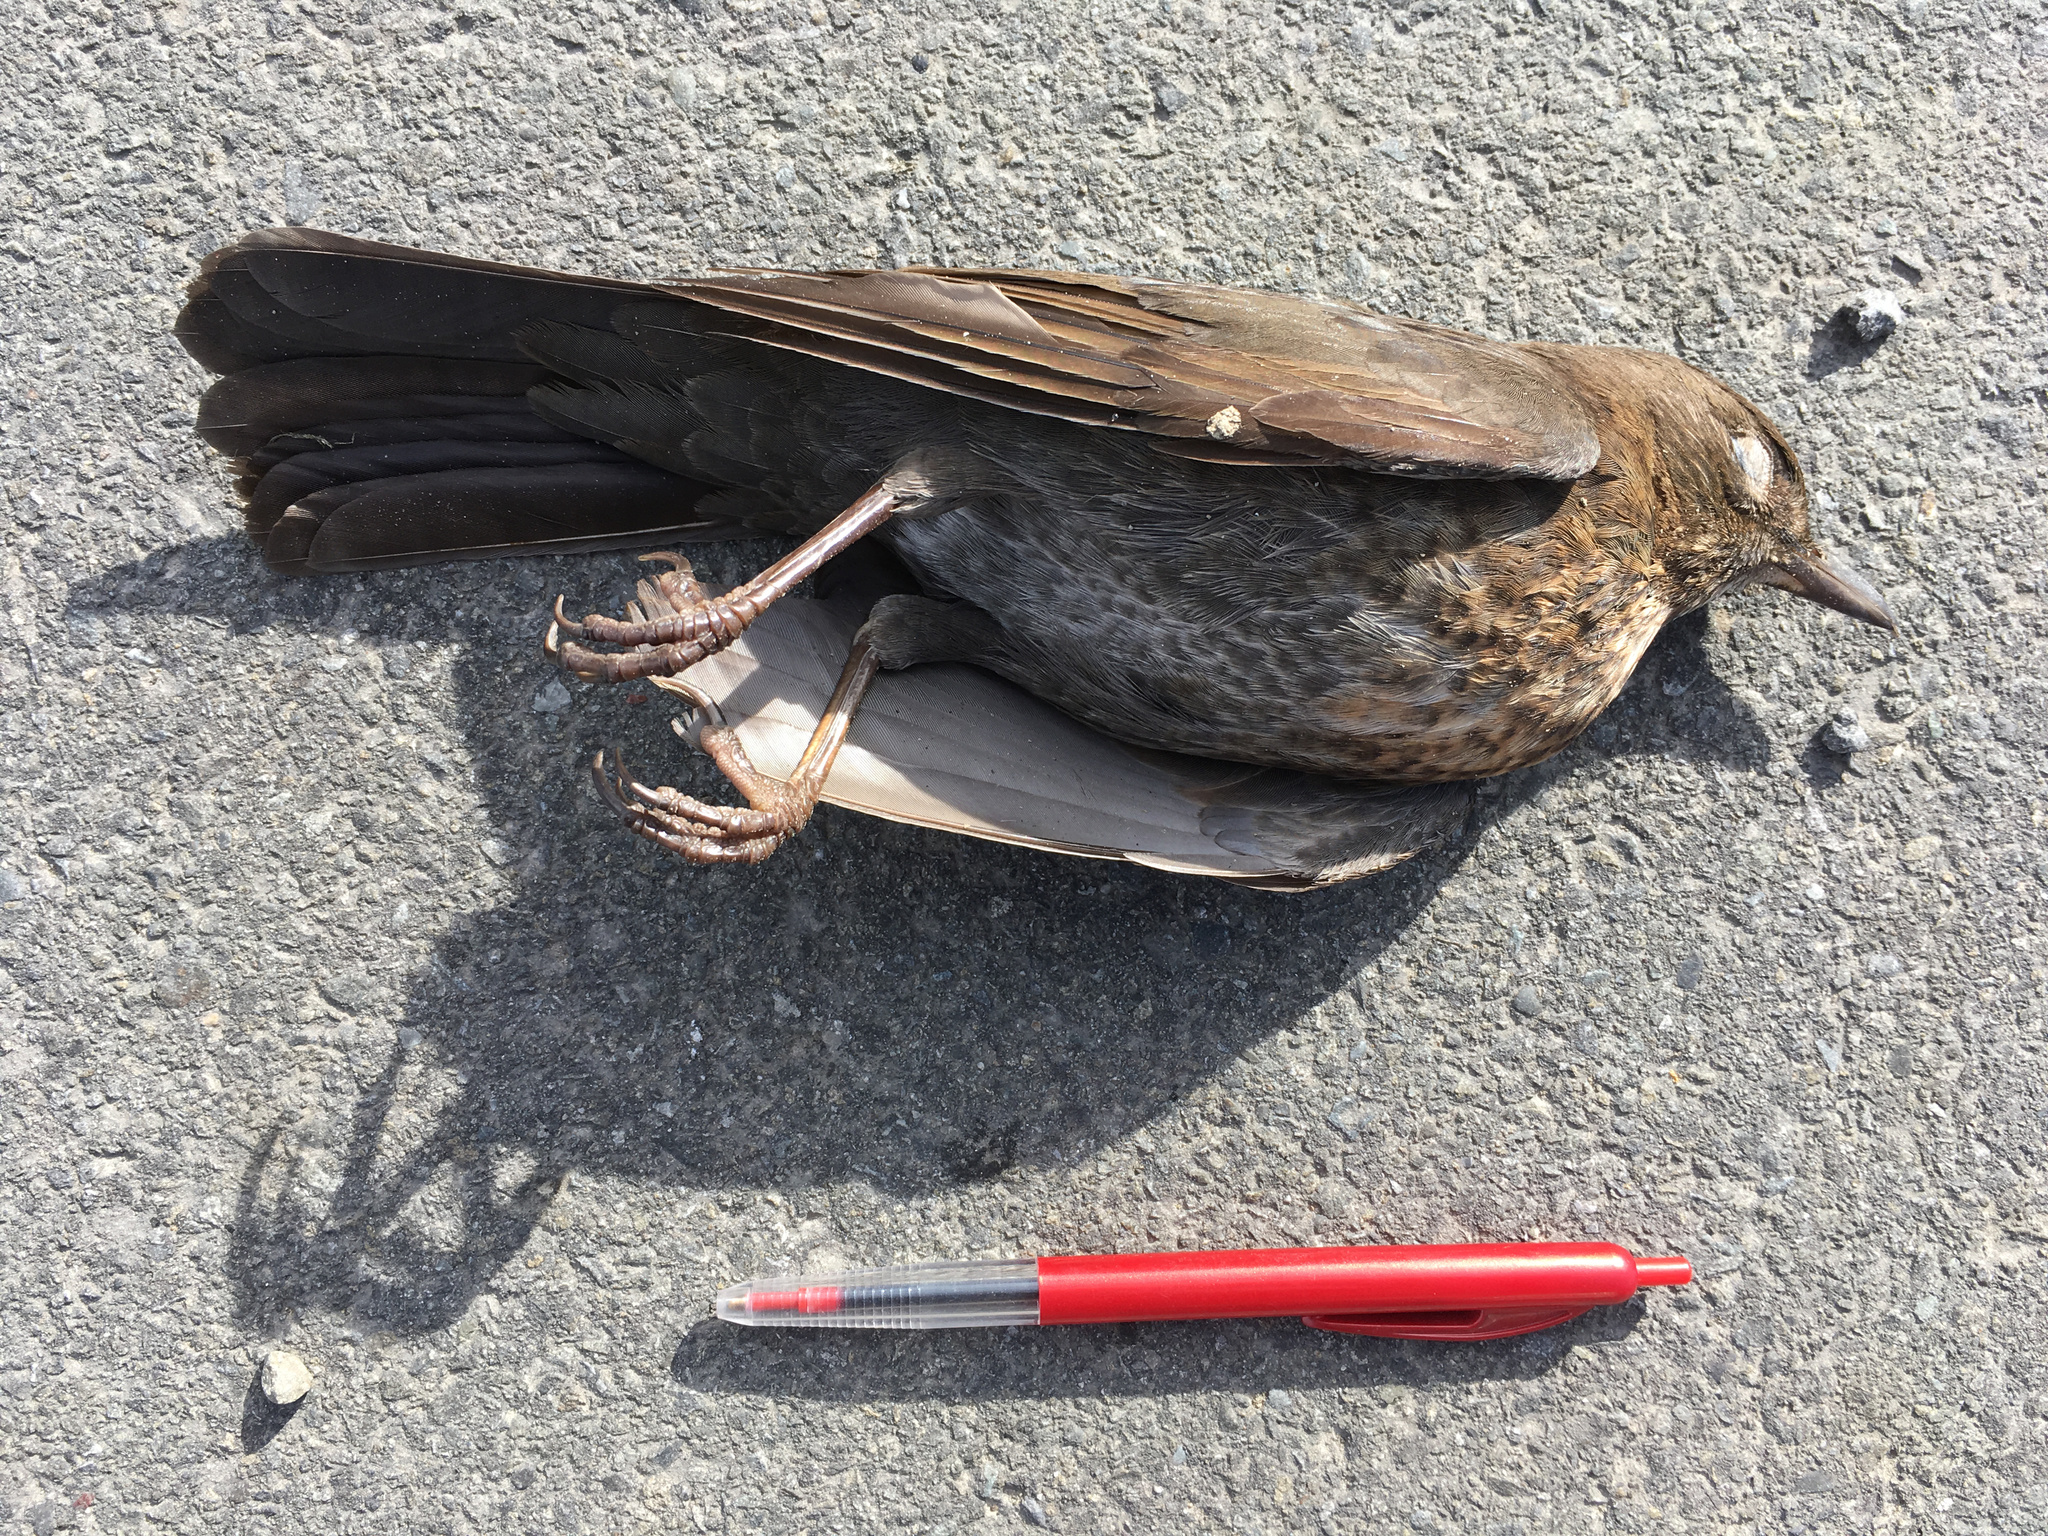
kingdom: Animalia
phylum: Chordata
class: Aves
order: Passeriformes
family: Turdidae
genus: Turdus
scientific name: Turdus merula
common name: Common blackbird
